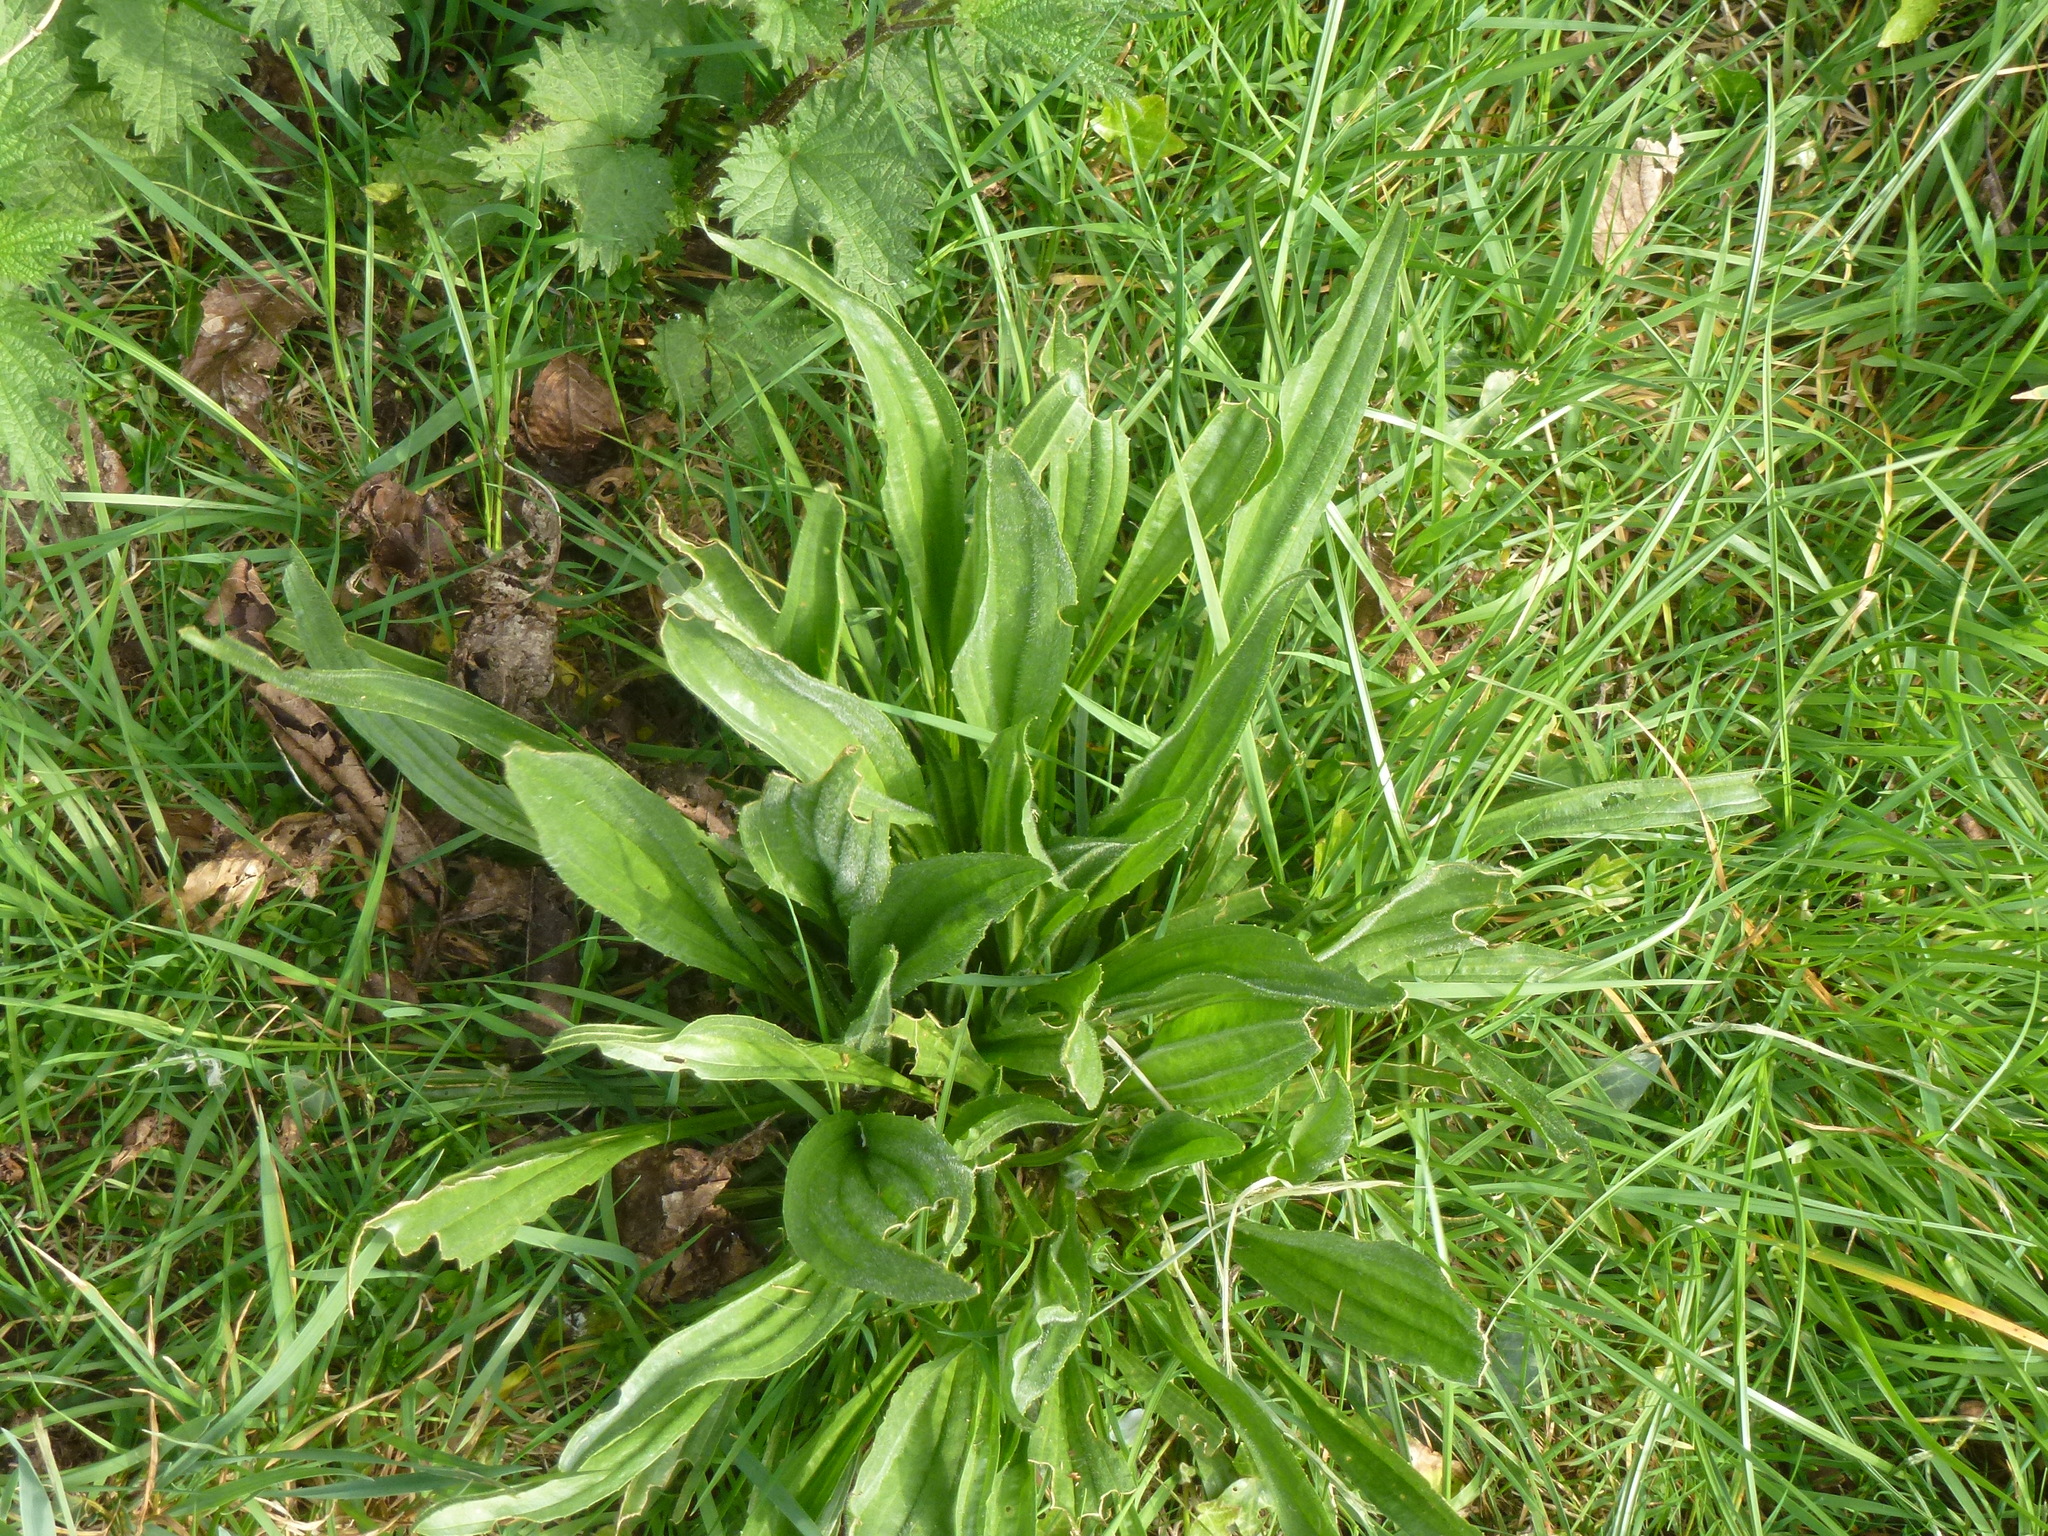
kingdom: Plantae
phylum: Tracheophyta
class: Magnoliopsida
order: Lamiales
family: Plantaginaceae
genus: Plantago
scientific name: Plantago lanceolata
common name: Ribwort plantain
